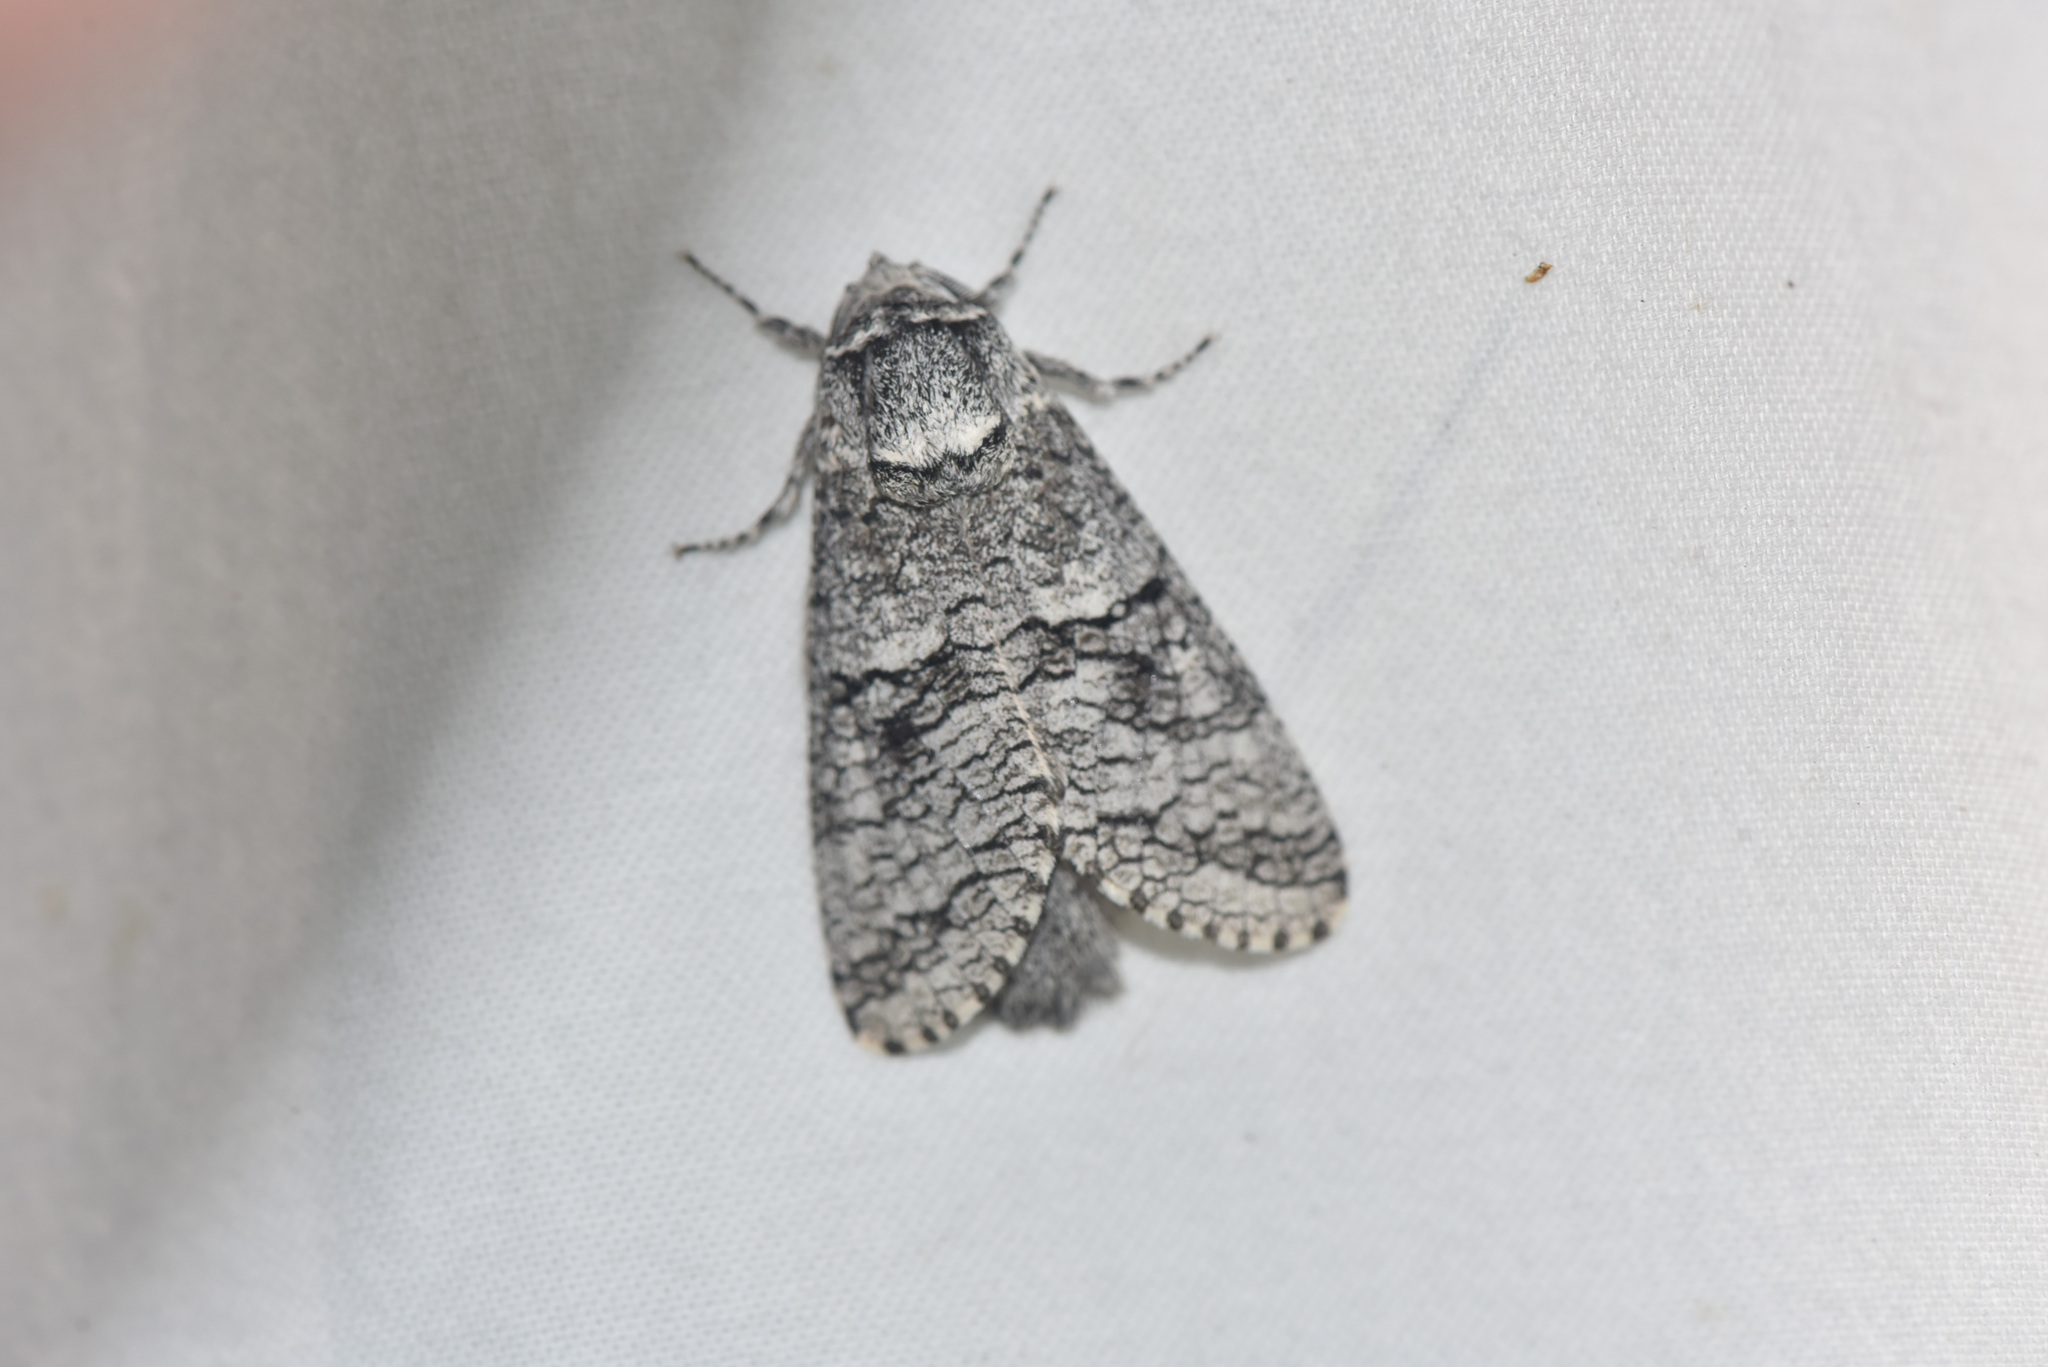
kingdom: Animalia
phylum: Arthropoda
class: Insecta
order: Lepidoptera
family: Cossidae
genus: Acossus
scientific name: Acossus populi
